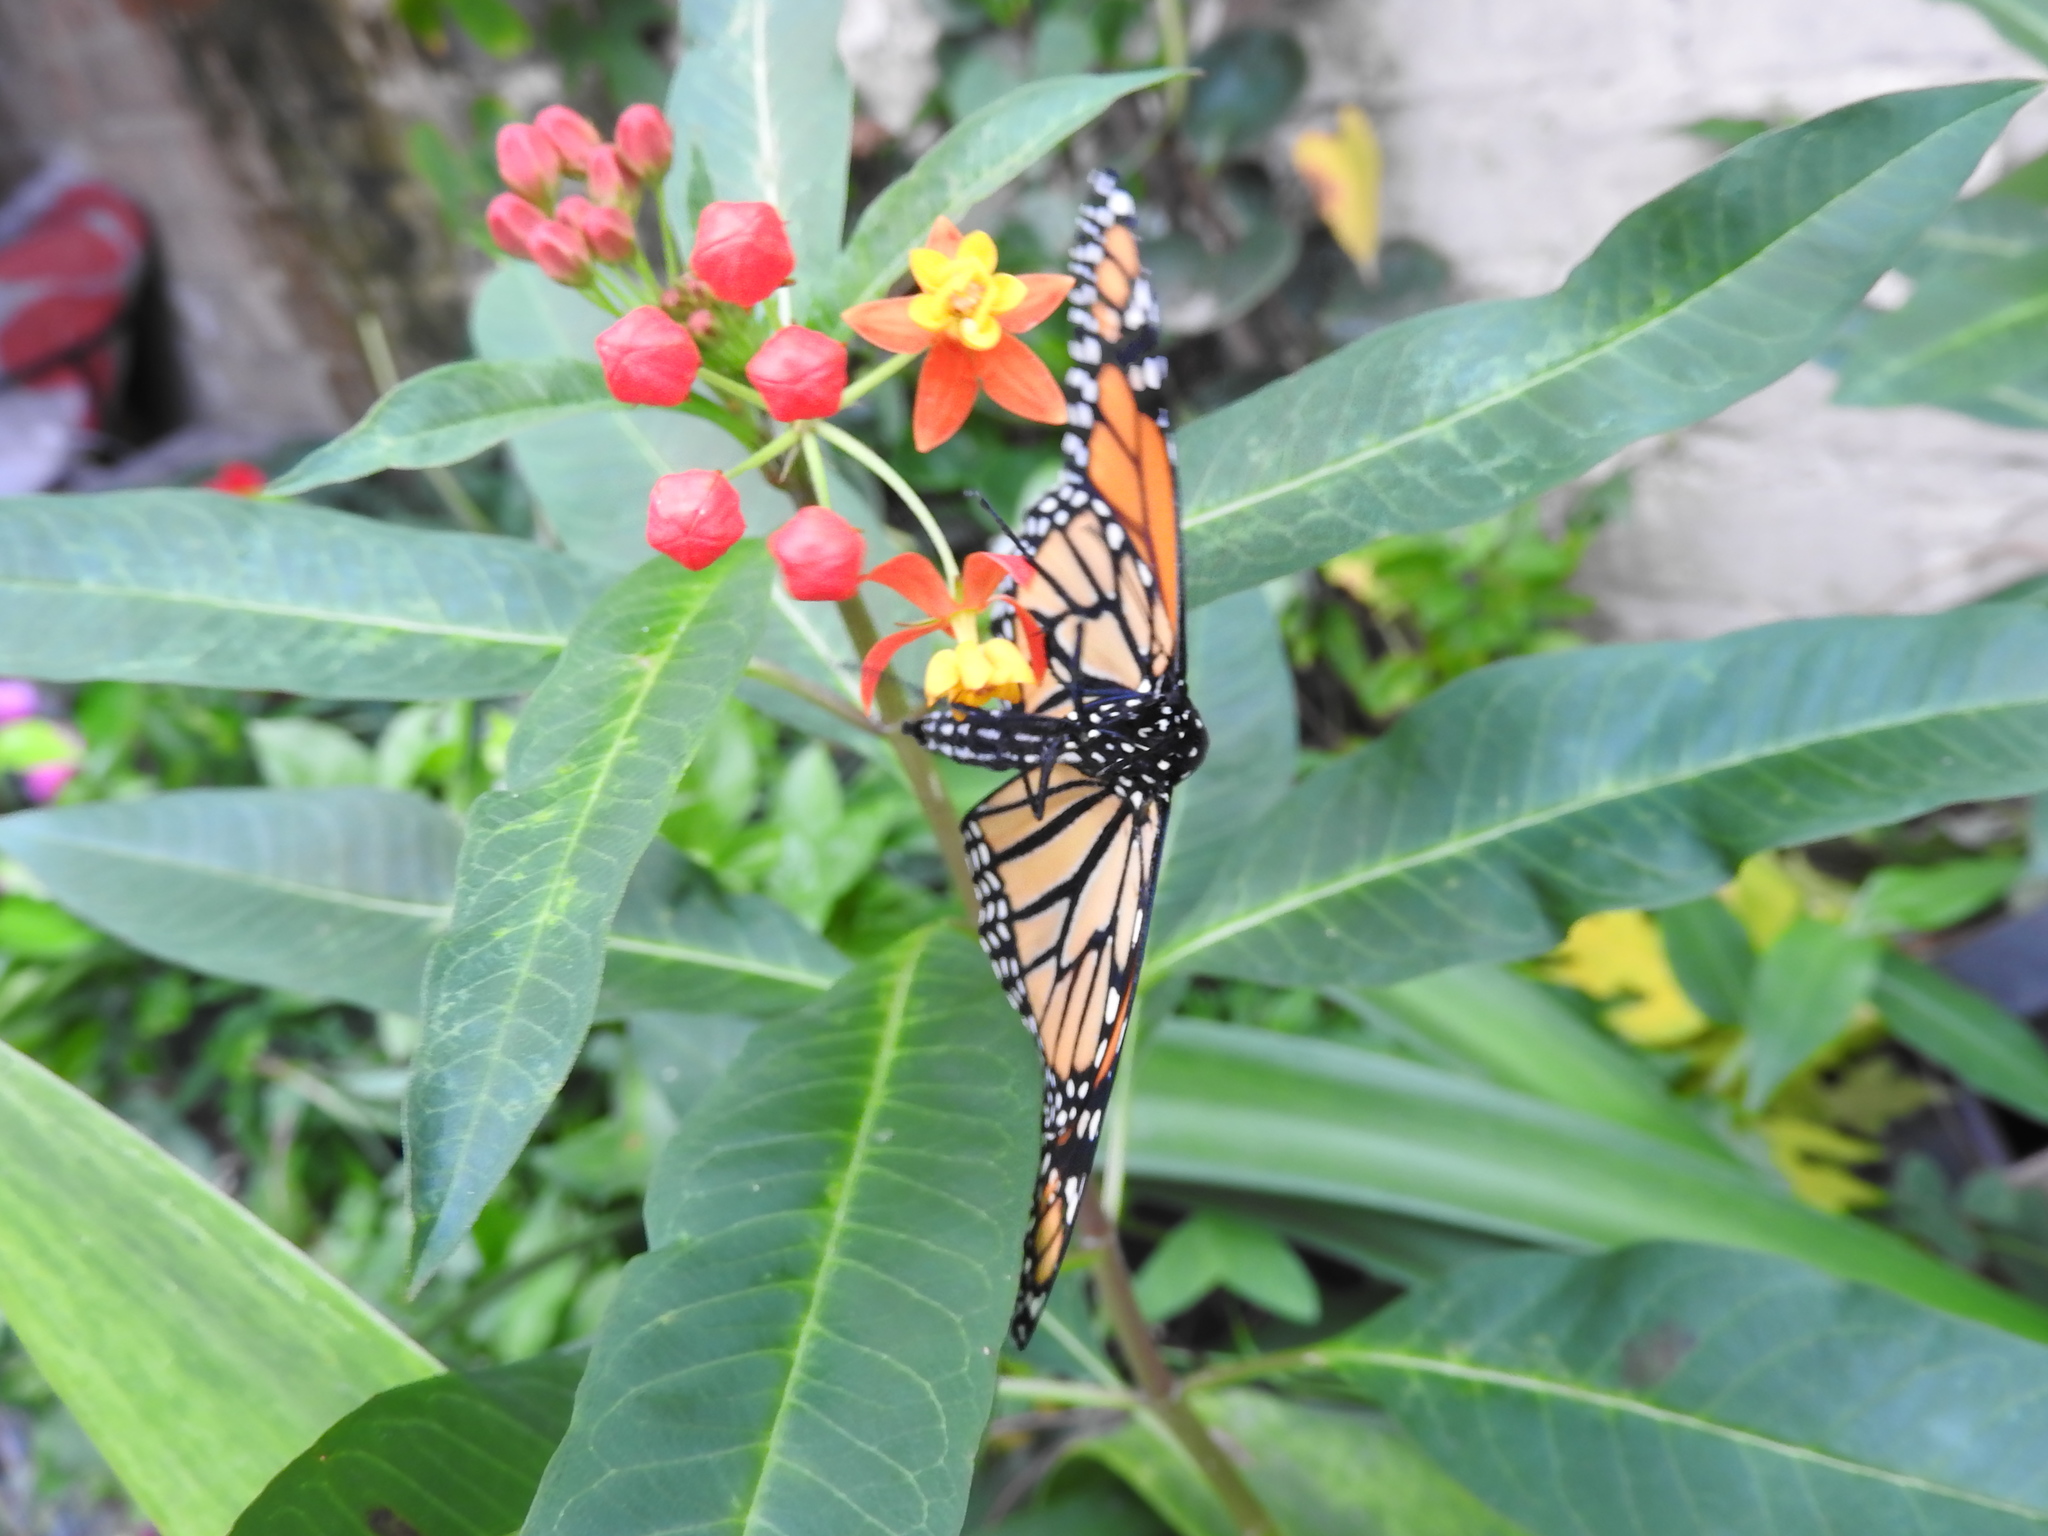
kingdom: Animalia
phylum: Arthropoda
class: Insecta
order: Lepidoptera
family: Nymphalidae
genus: Danaus
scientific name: Danaus plexippus
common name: Monarch
